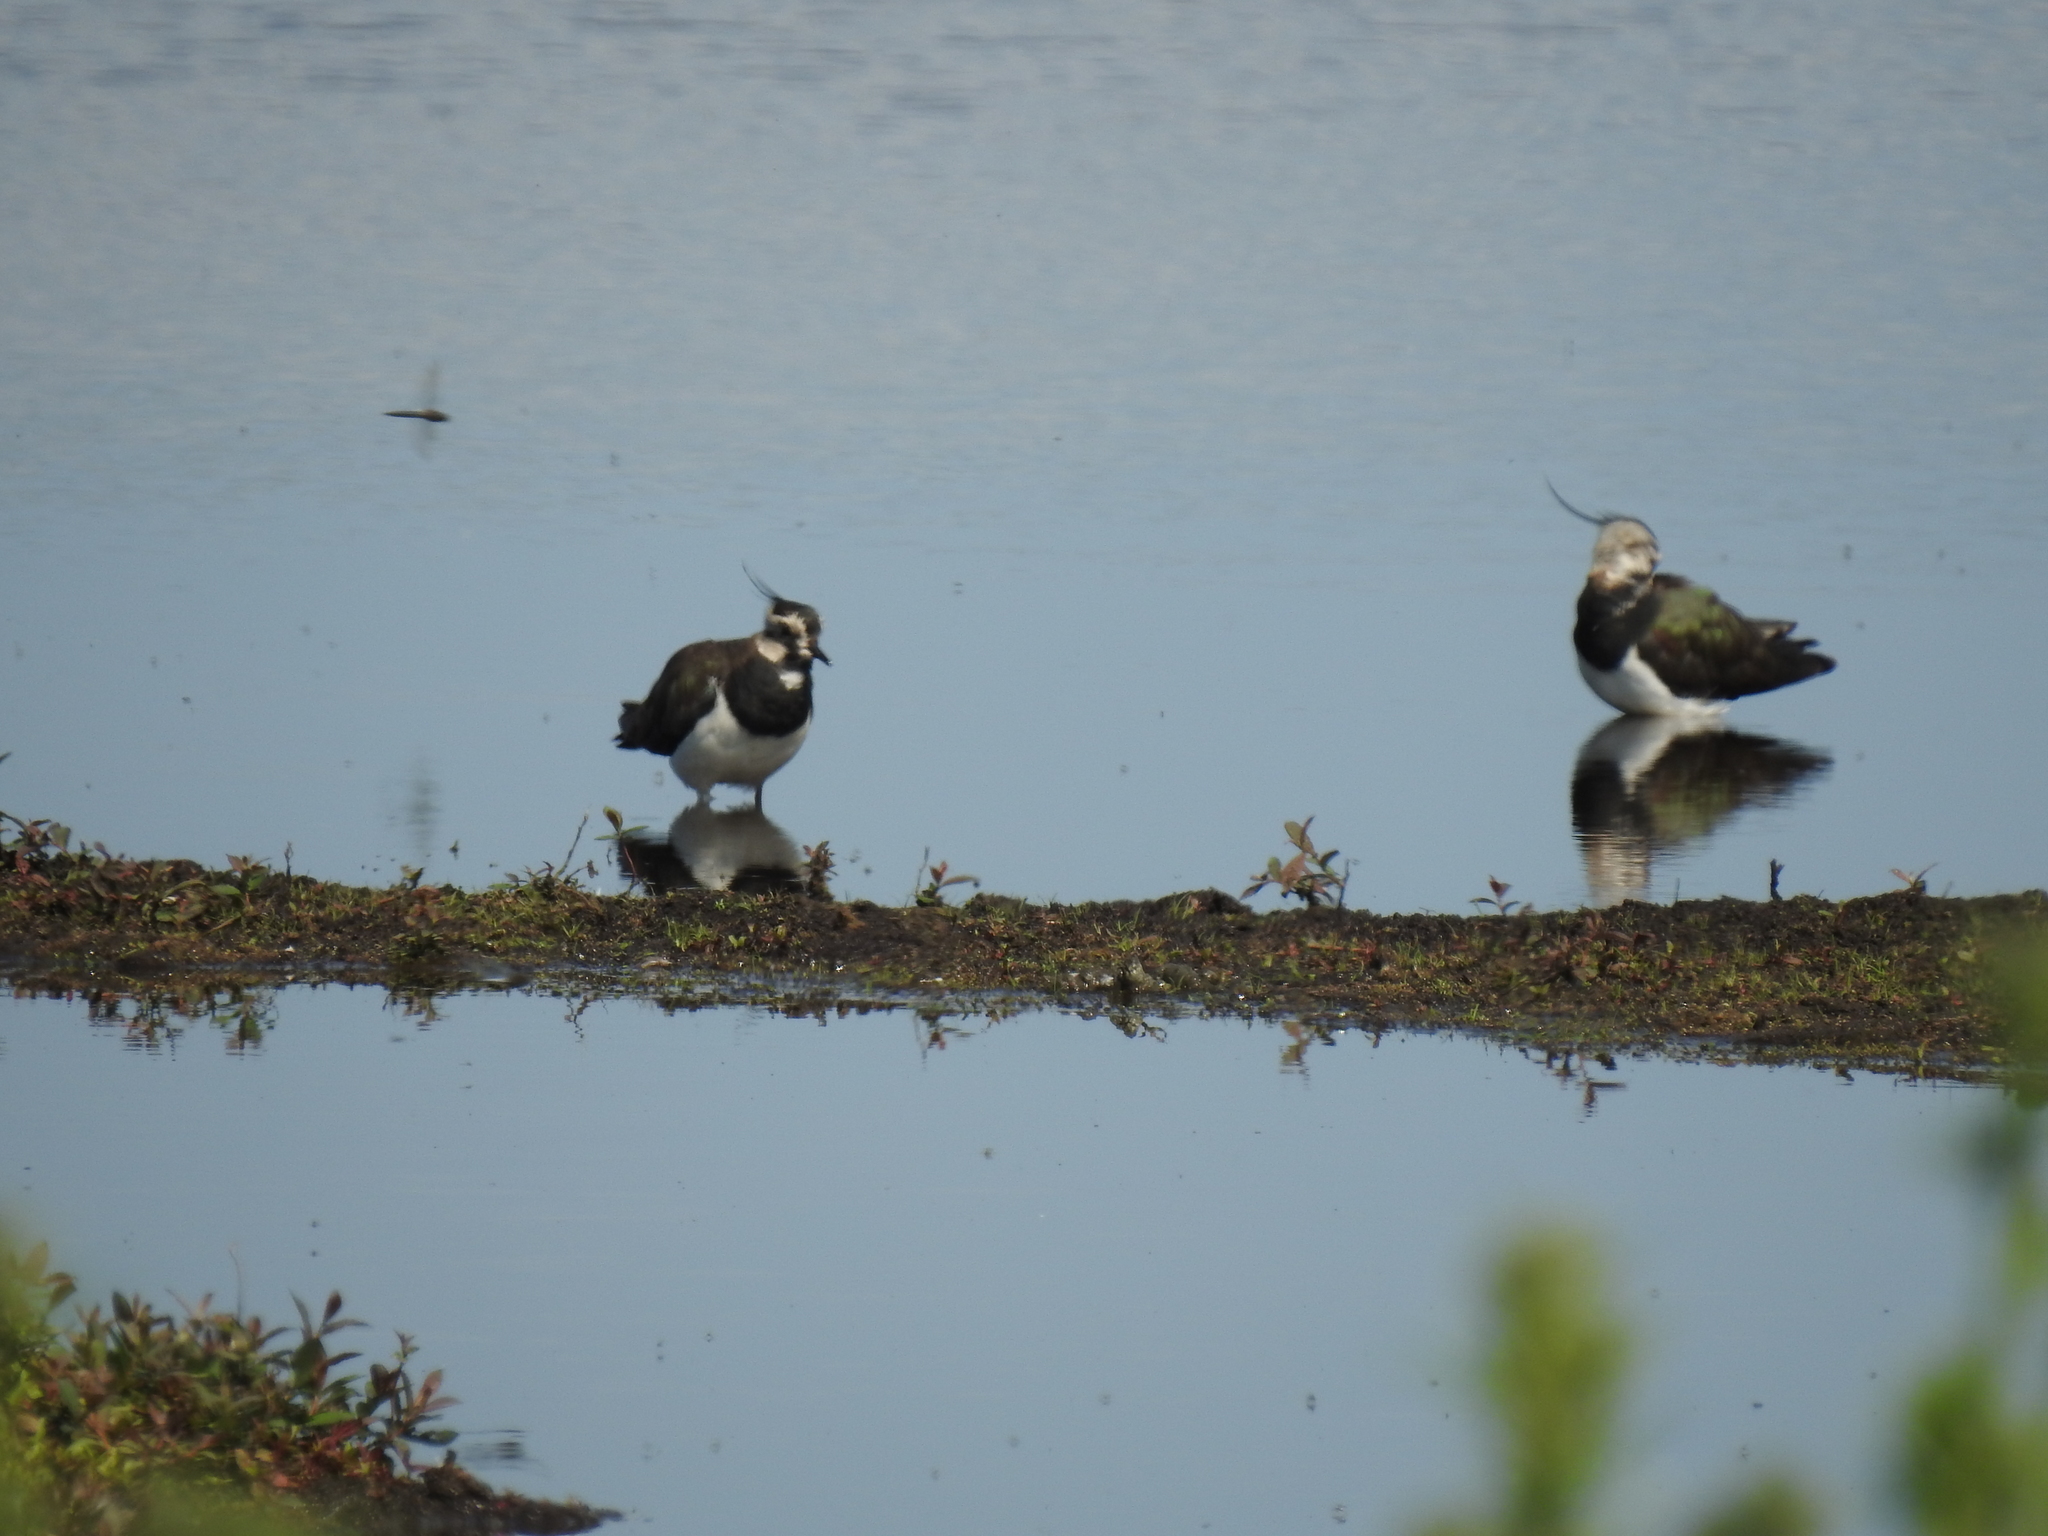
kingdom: Animalia
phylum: Chordata
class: Aves
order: Charadriiformes
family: Charadriidae
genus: Vanellus
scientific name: Vanellus vanellus
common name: Northern lapwing
